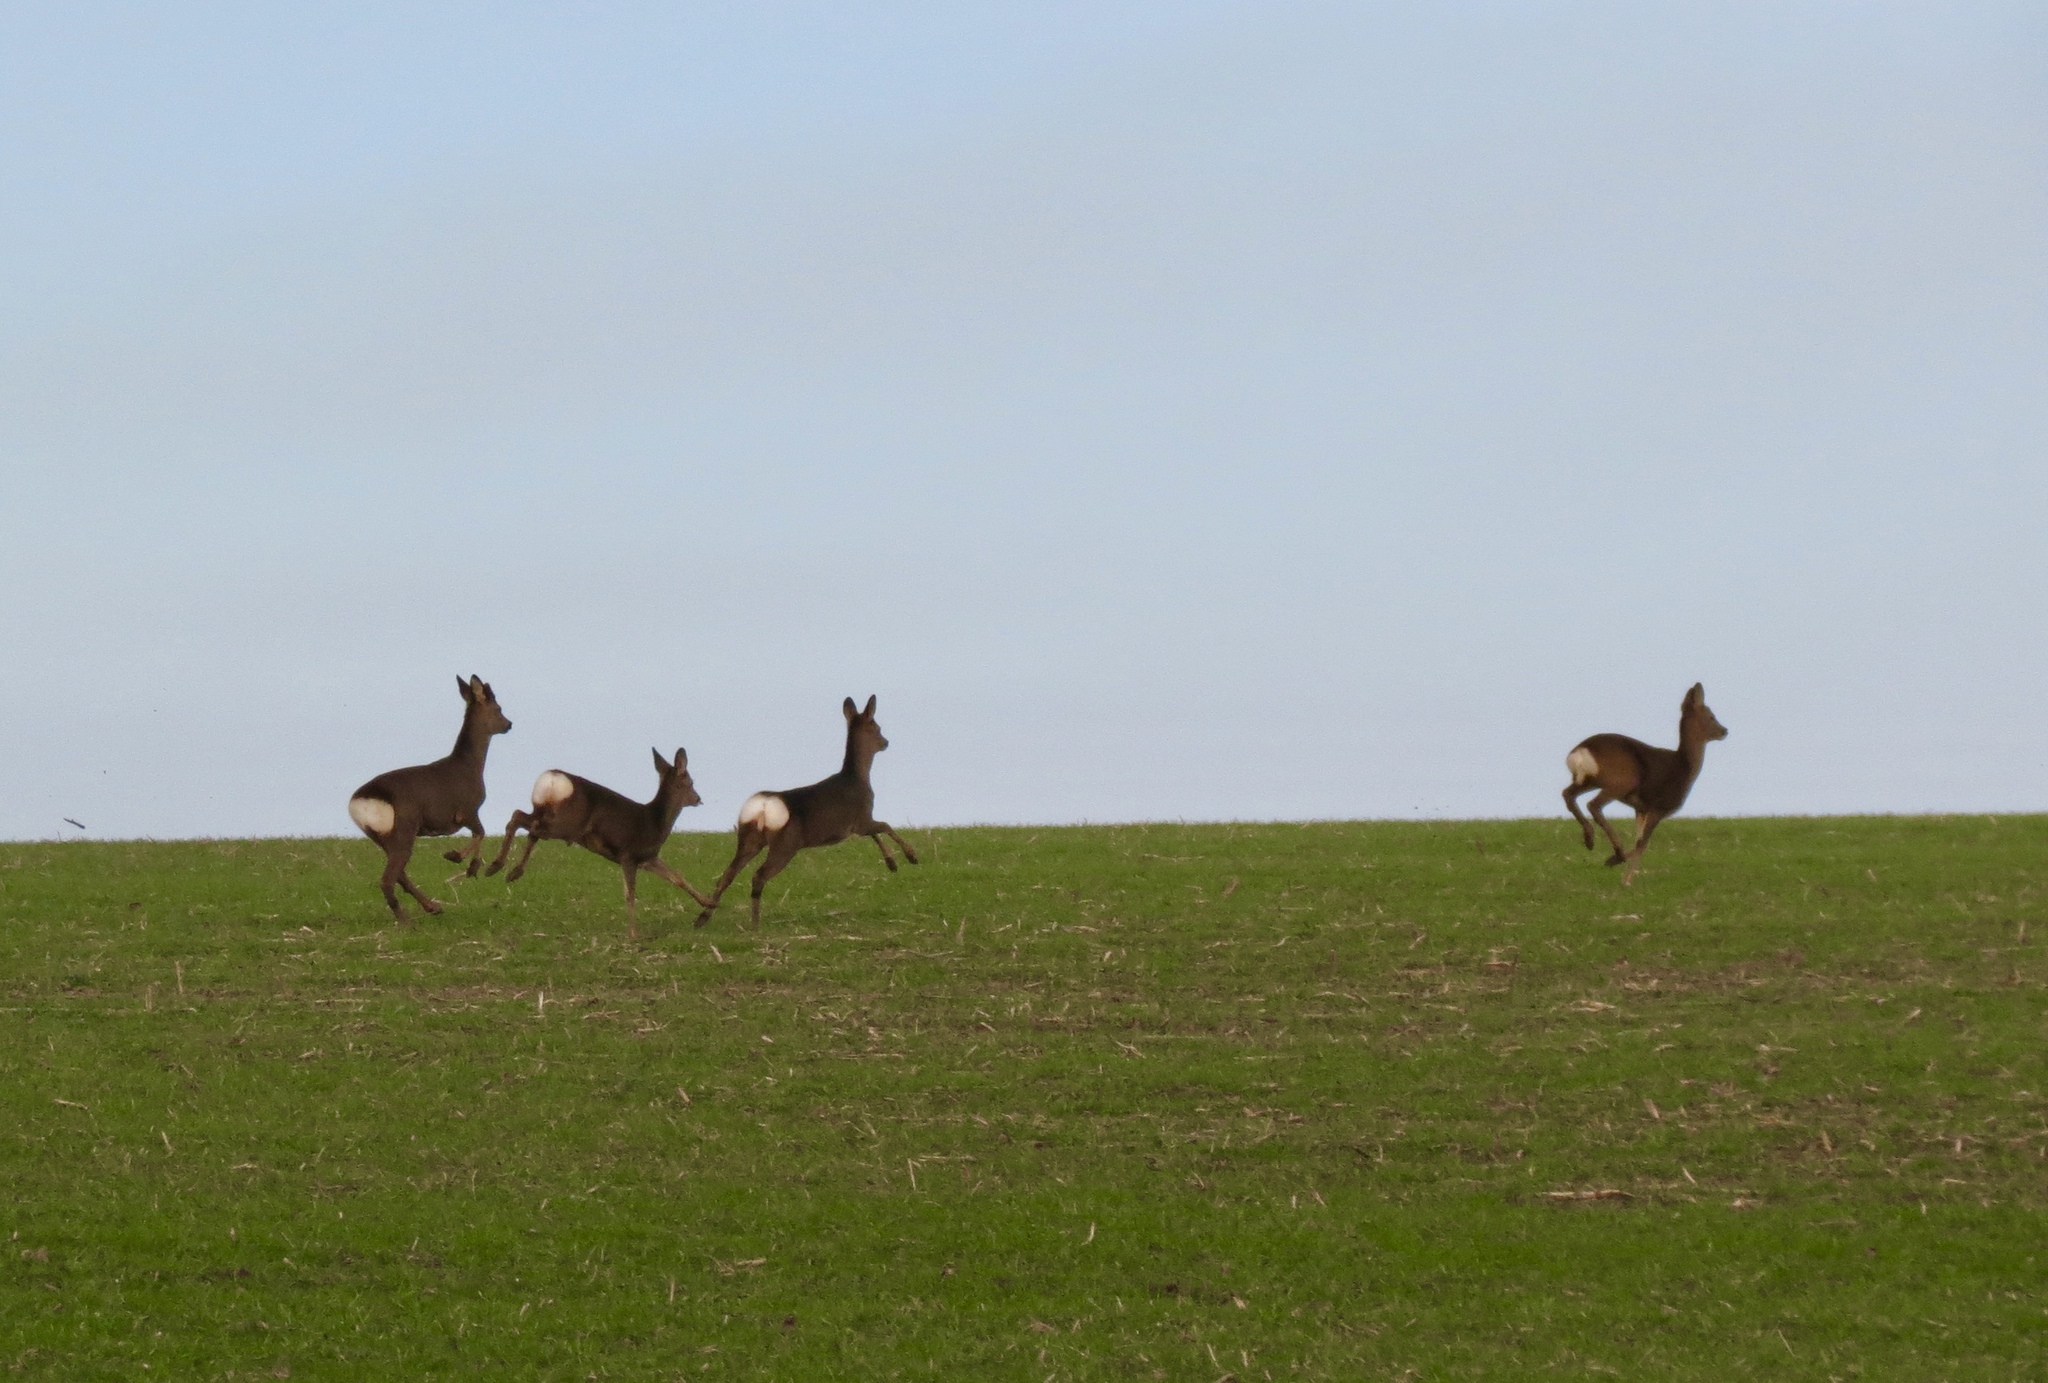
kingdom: Animalia
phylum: Chordata
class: Mammalia
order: Artiodactyla
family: Cervidae
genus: Capreolus
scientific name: Capreolus capreolus
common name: Western roe deer
